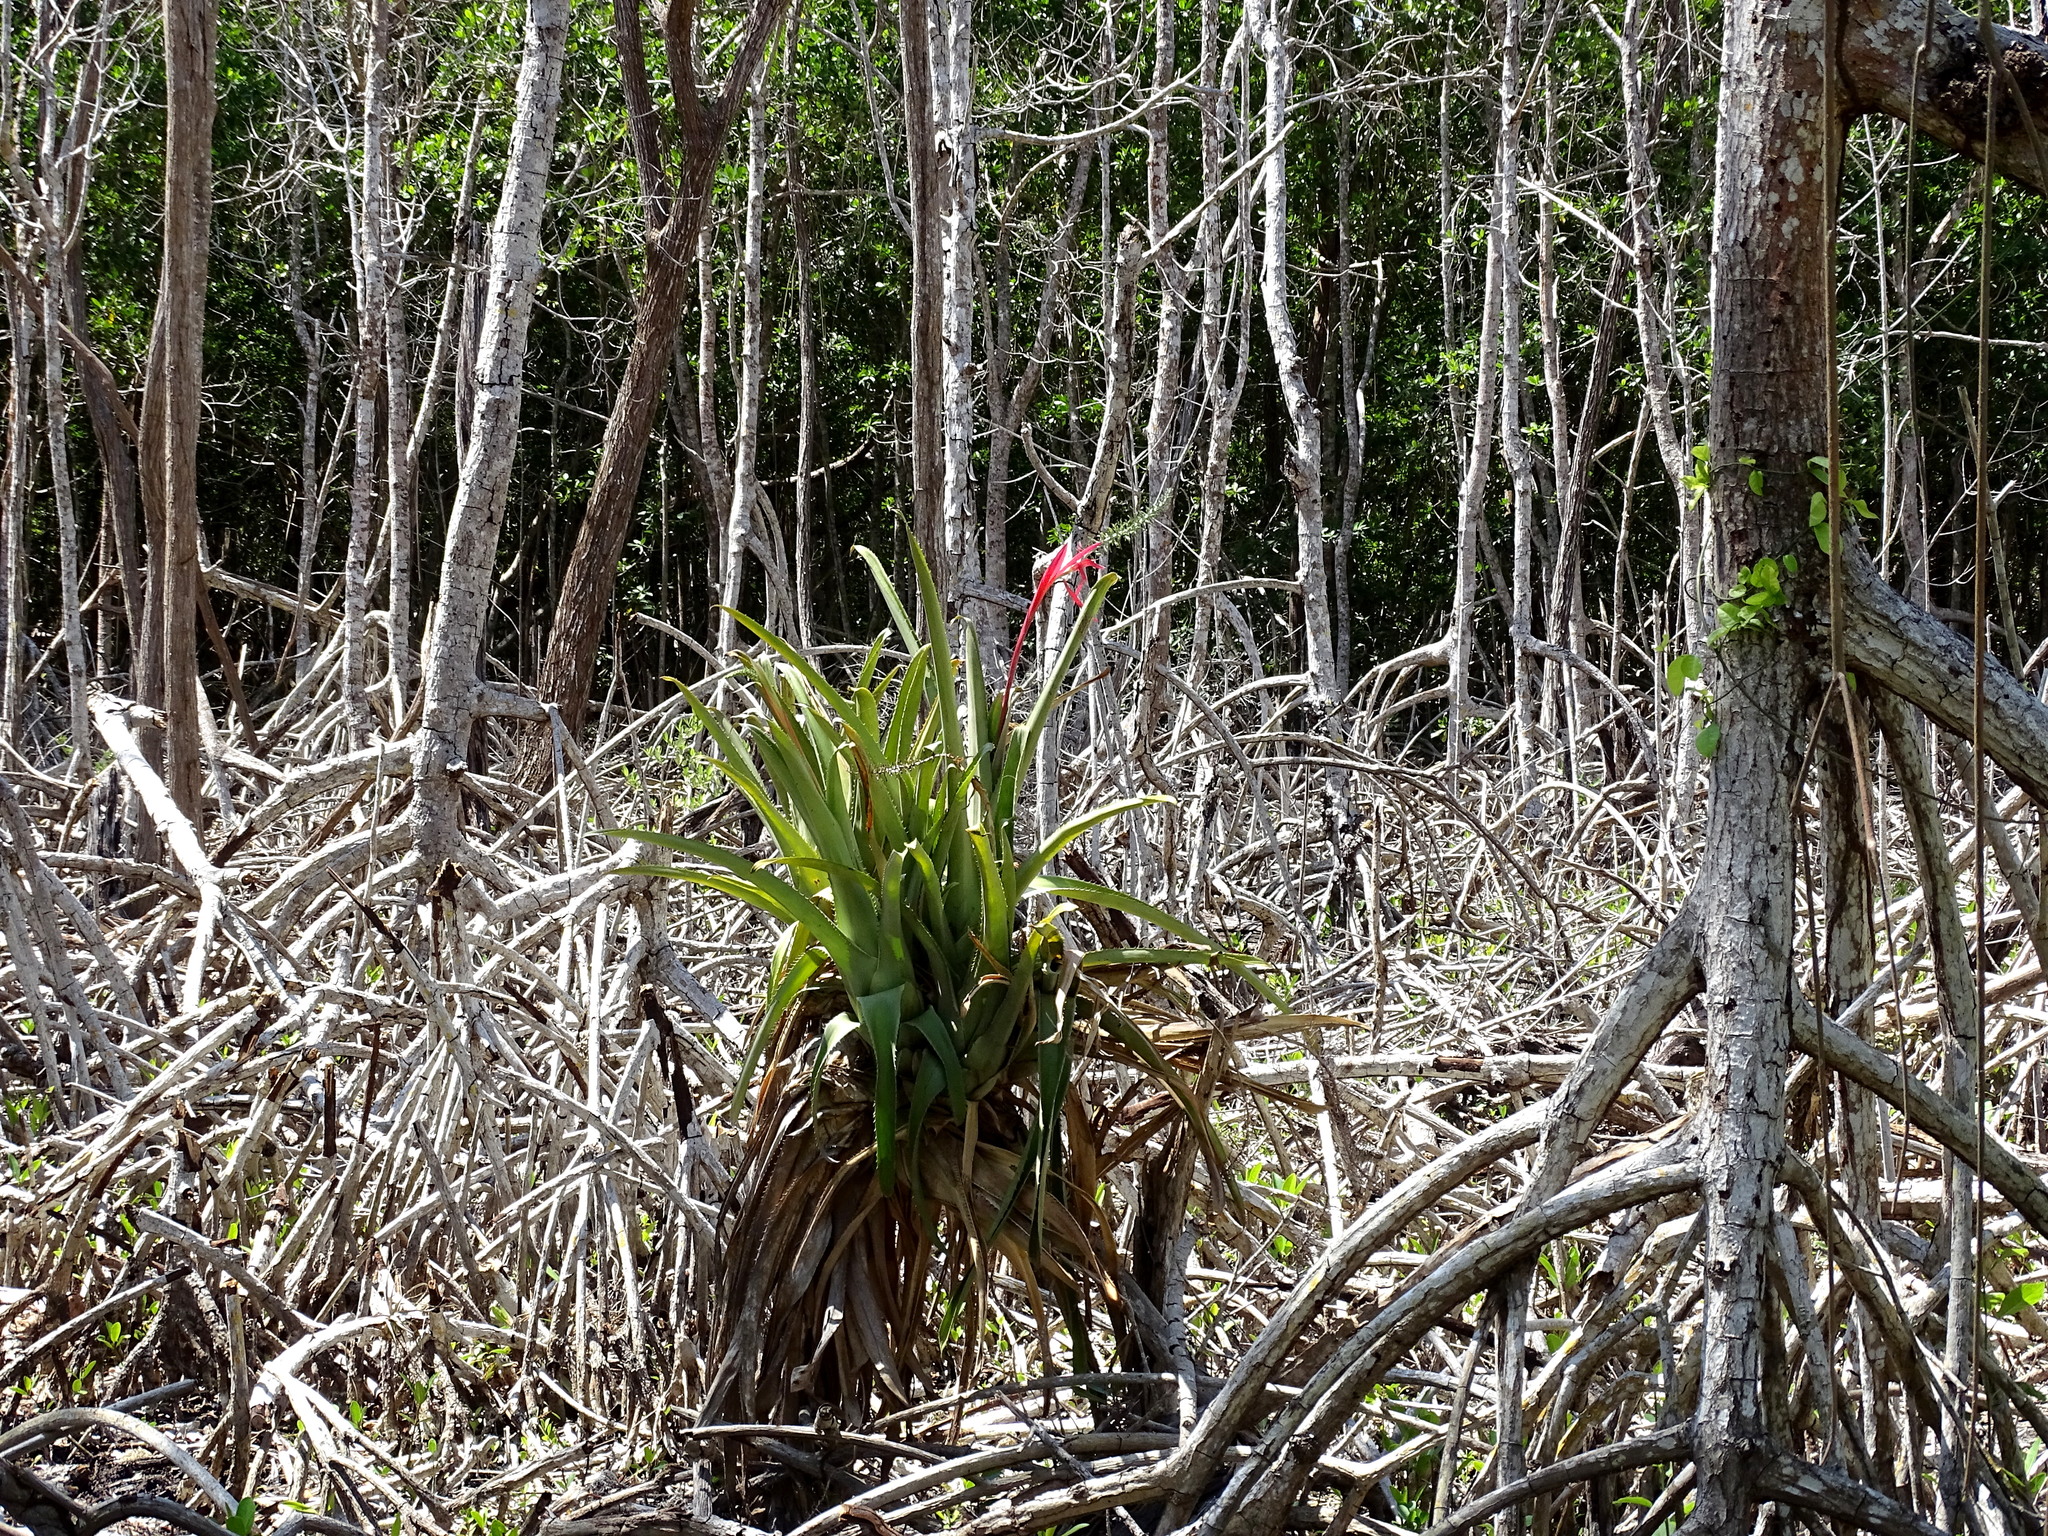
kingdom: Plantae
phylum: Tracheophyta
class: Liliopsida
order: Poales
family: Bromeliaceae
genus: Aechmea
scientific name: Aechmea bracteata
